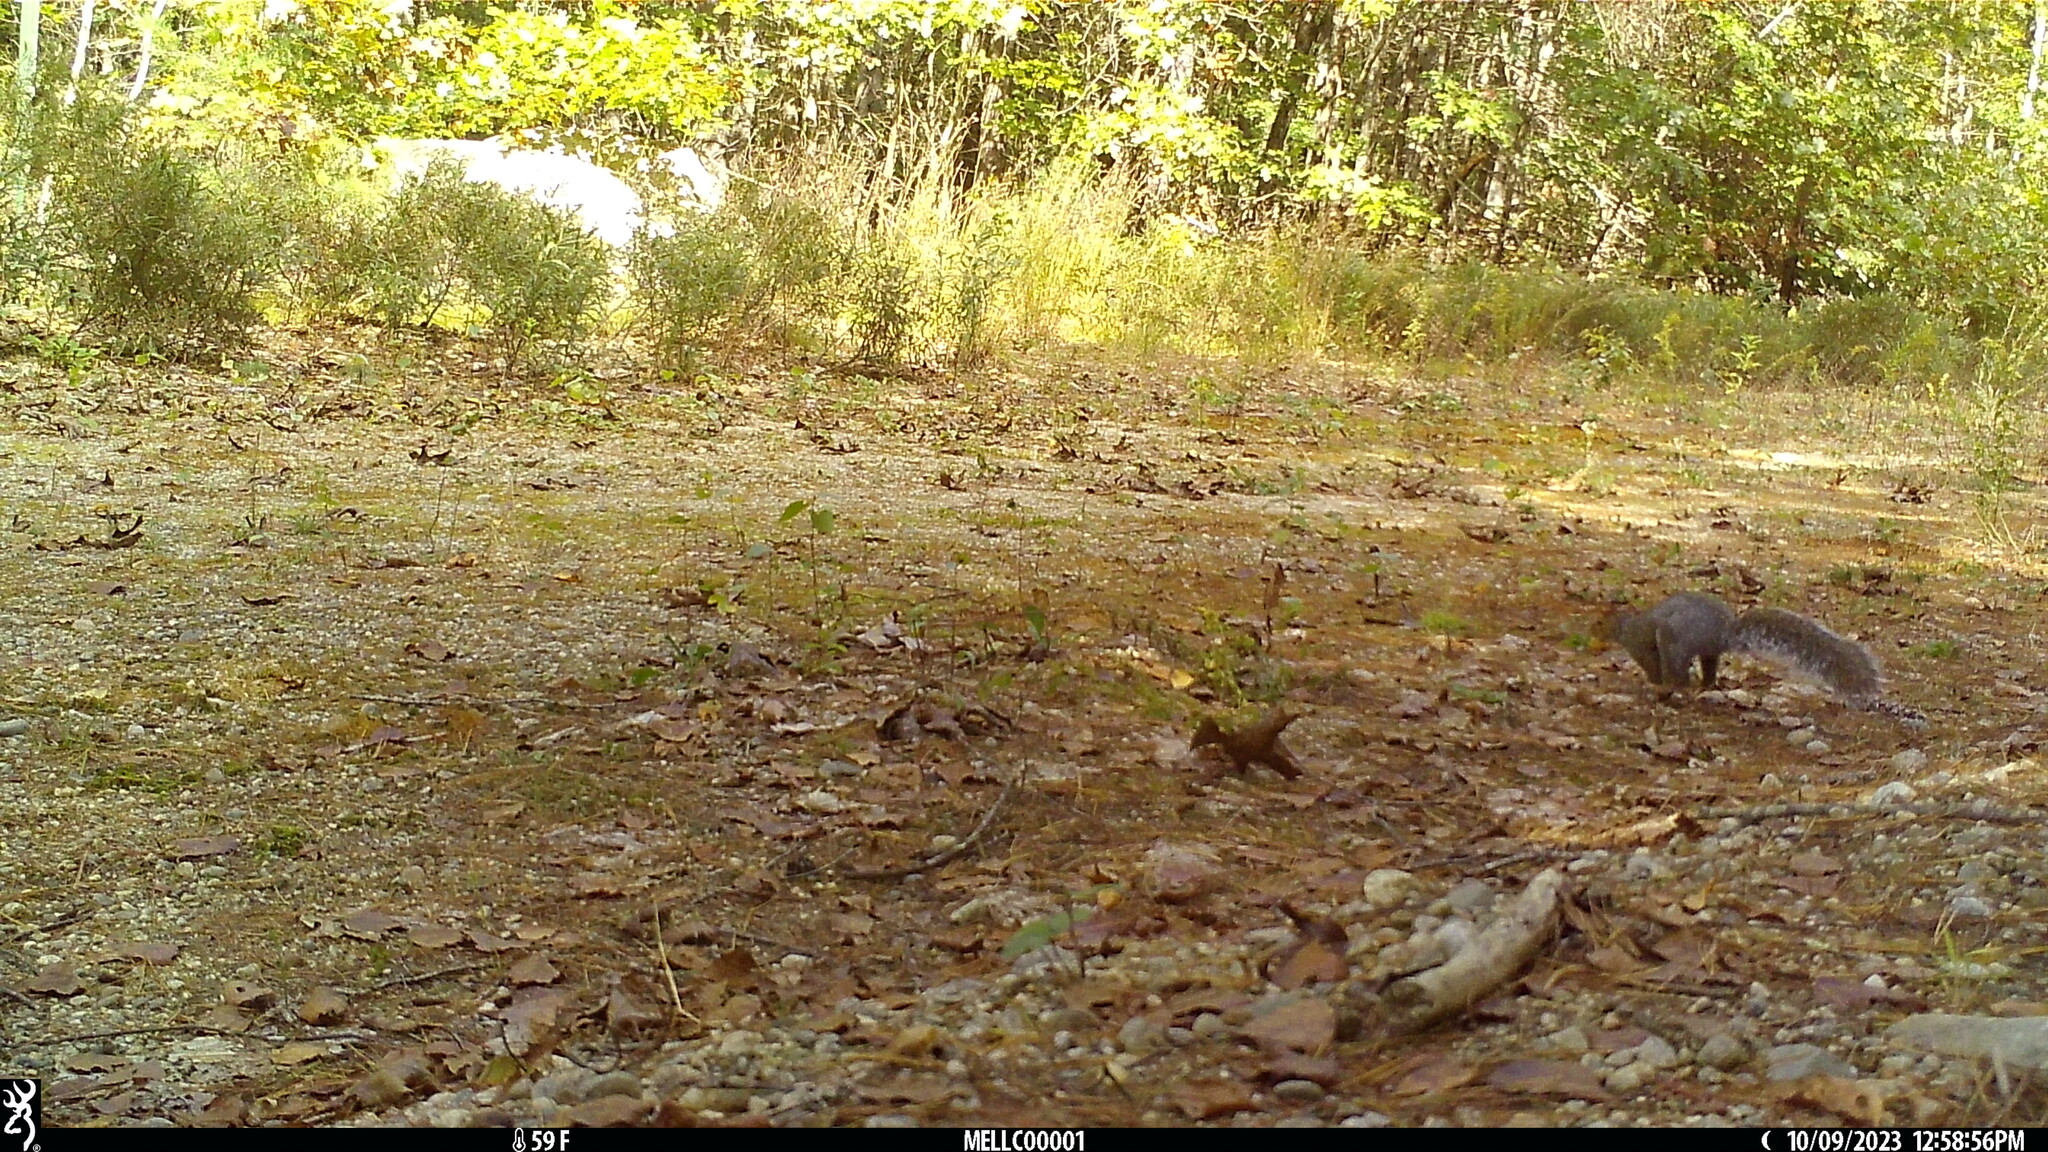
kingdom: Animalia
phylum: Chordata
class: Mammalia
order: Rodentia
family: Sciuridae
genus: Sciurus
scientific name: Sciurus carolinensis
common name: Eastern gray squirrel
